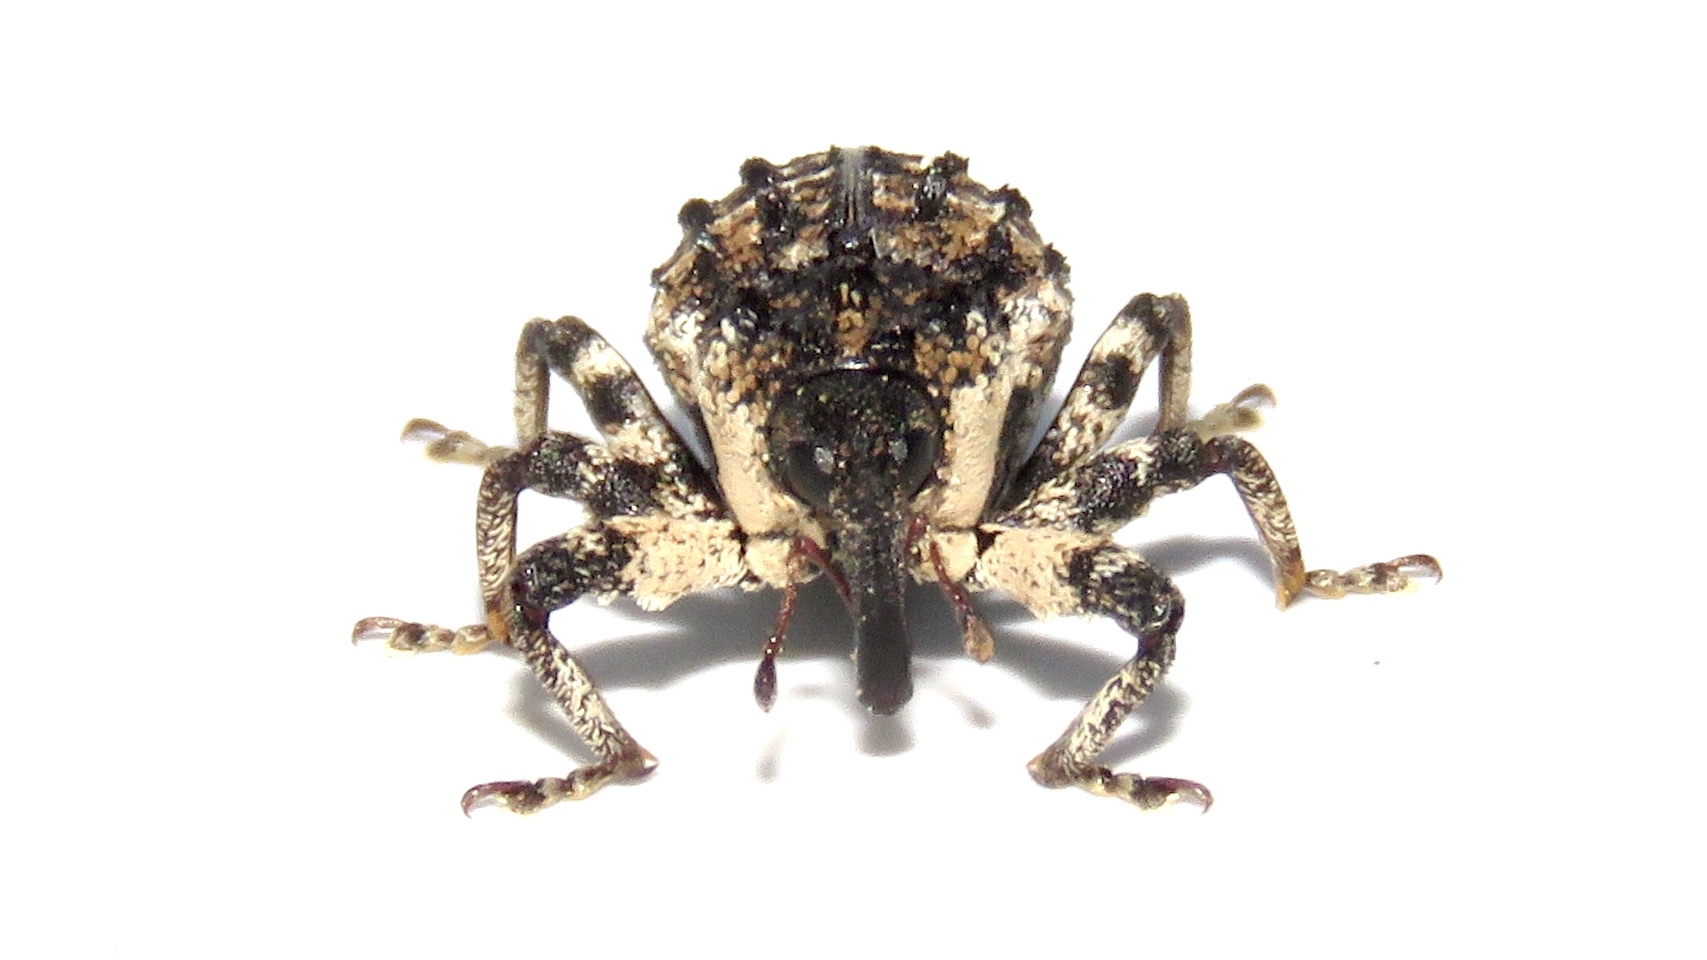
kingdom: Animalia
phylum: Arthropoda
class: Insecta
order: Coleoptera
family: Curculionidae
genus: Cryptorhynchus
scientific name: Cryptorhynchus lapathi
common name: Weevil
